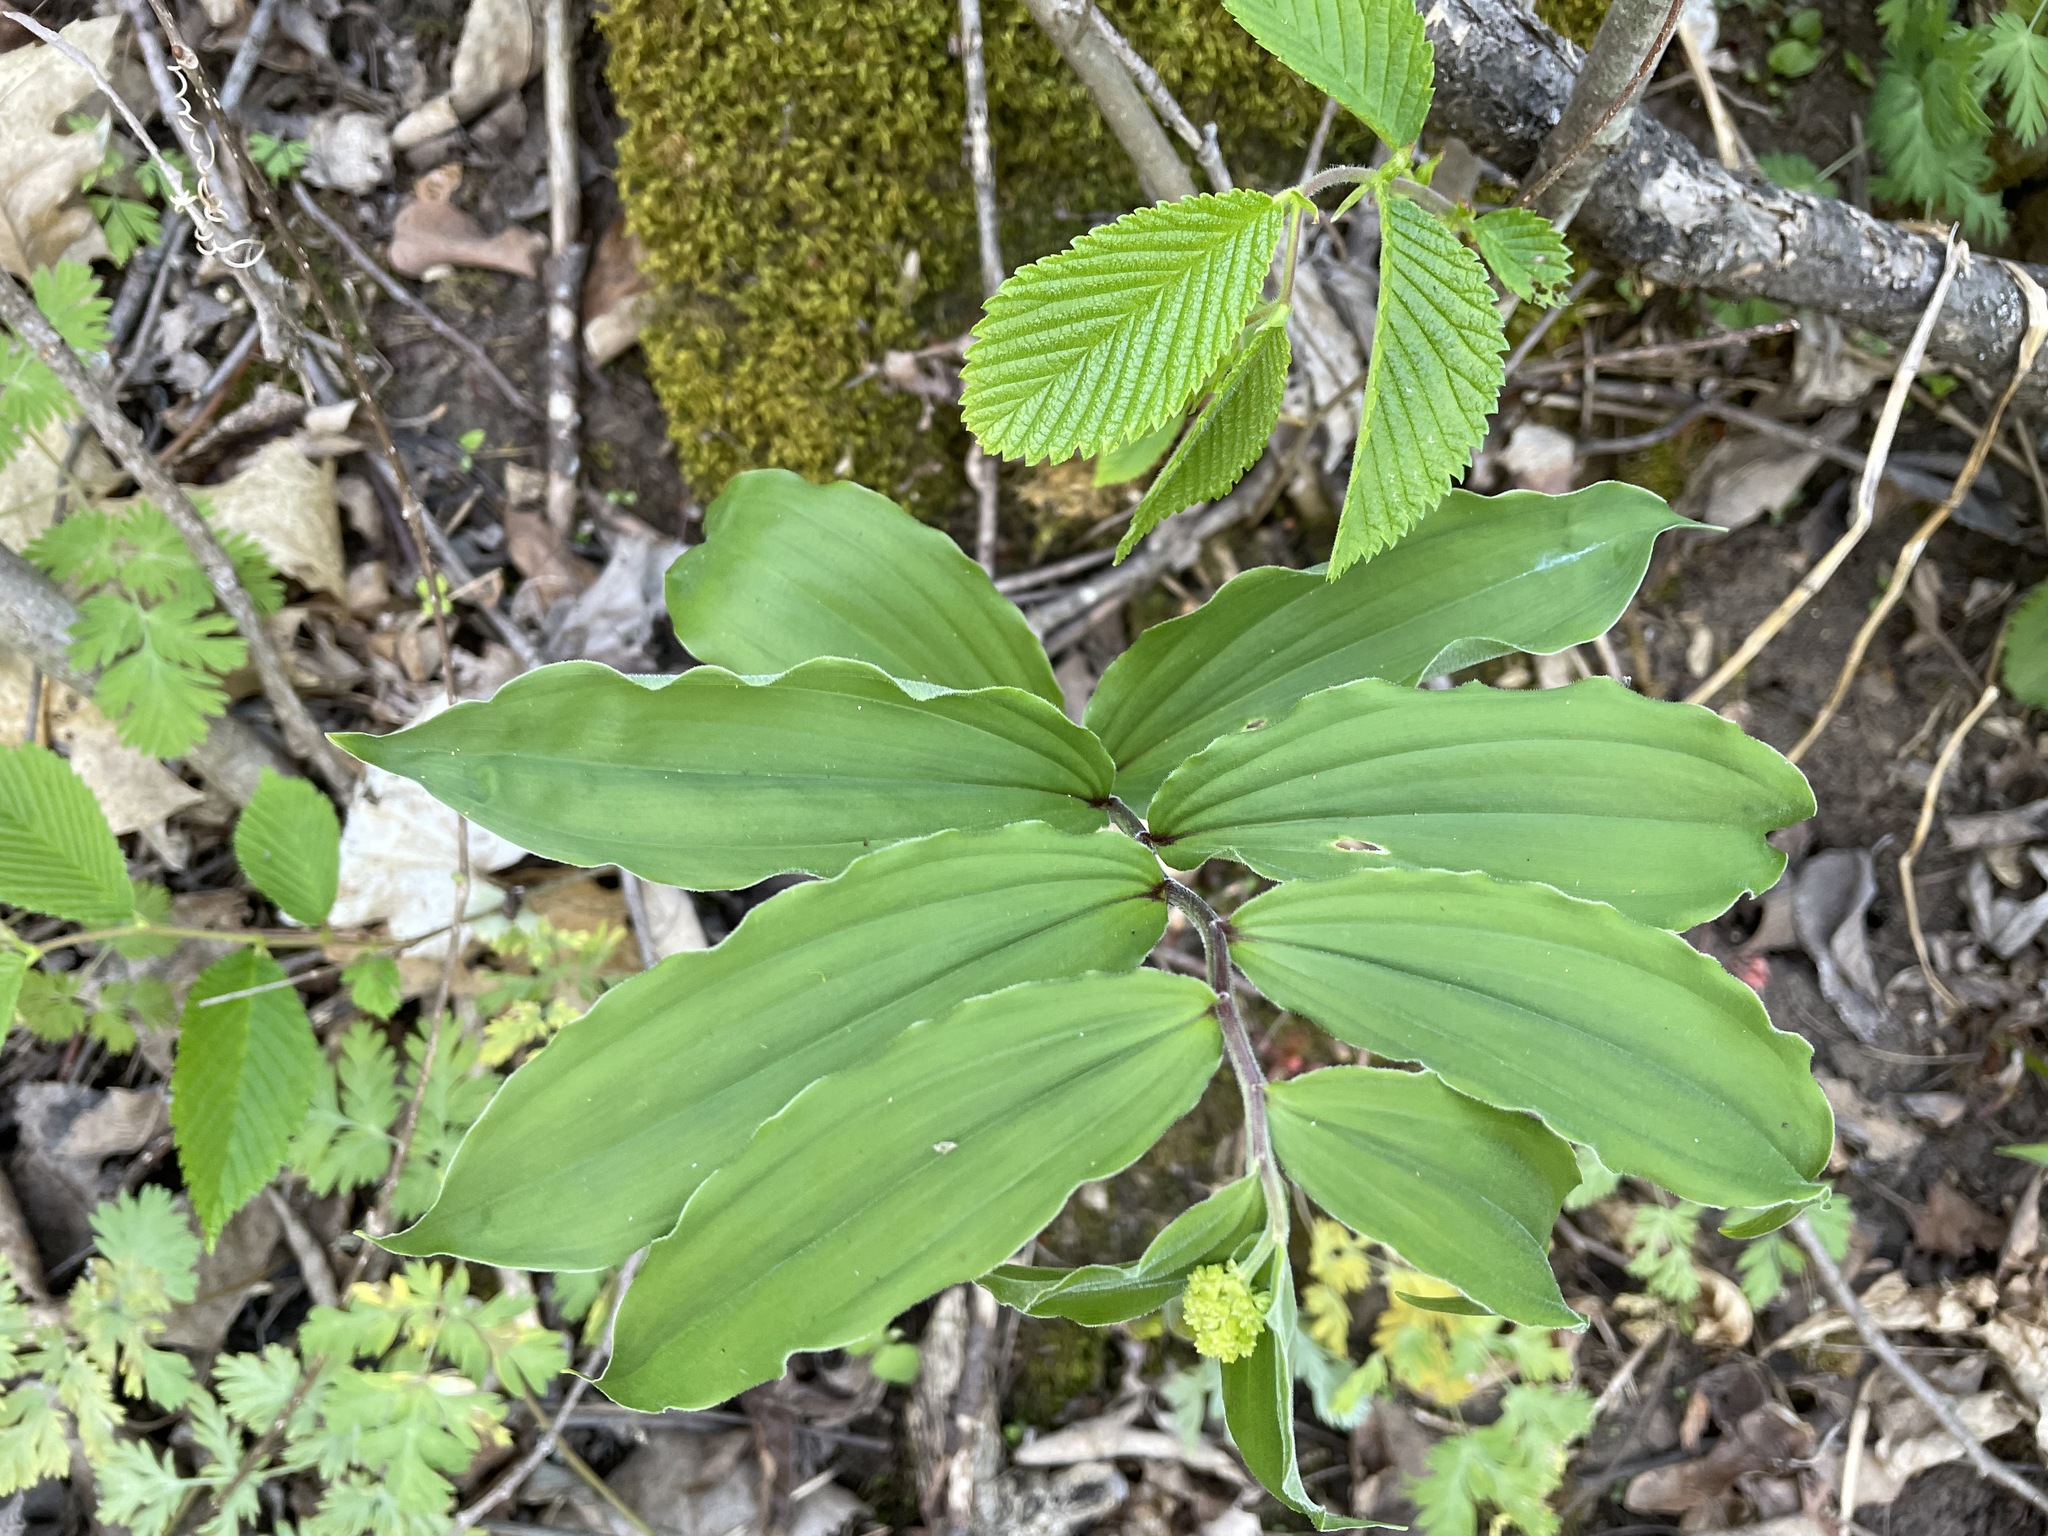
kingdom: Plantae
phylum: Tracheophyta
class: Liliopsida
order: Asparagales
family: Asparagaceae
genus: Maianthemum
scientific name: Maianthemum racemosum
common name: False spikenard
